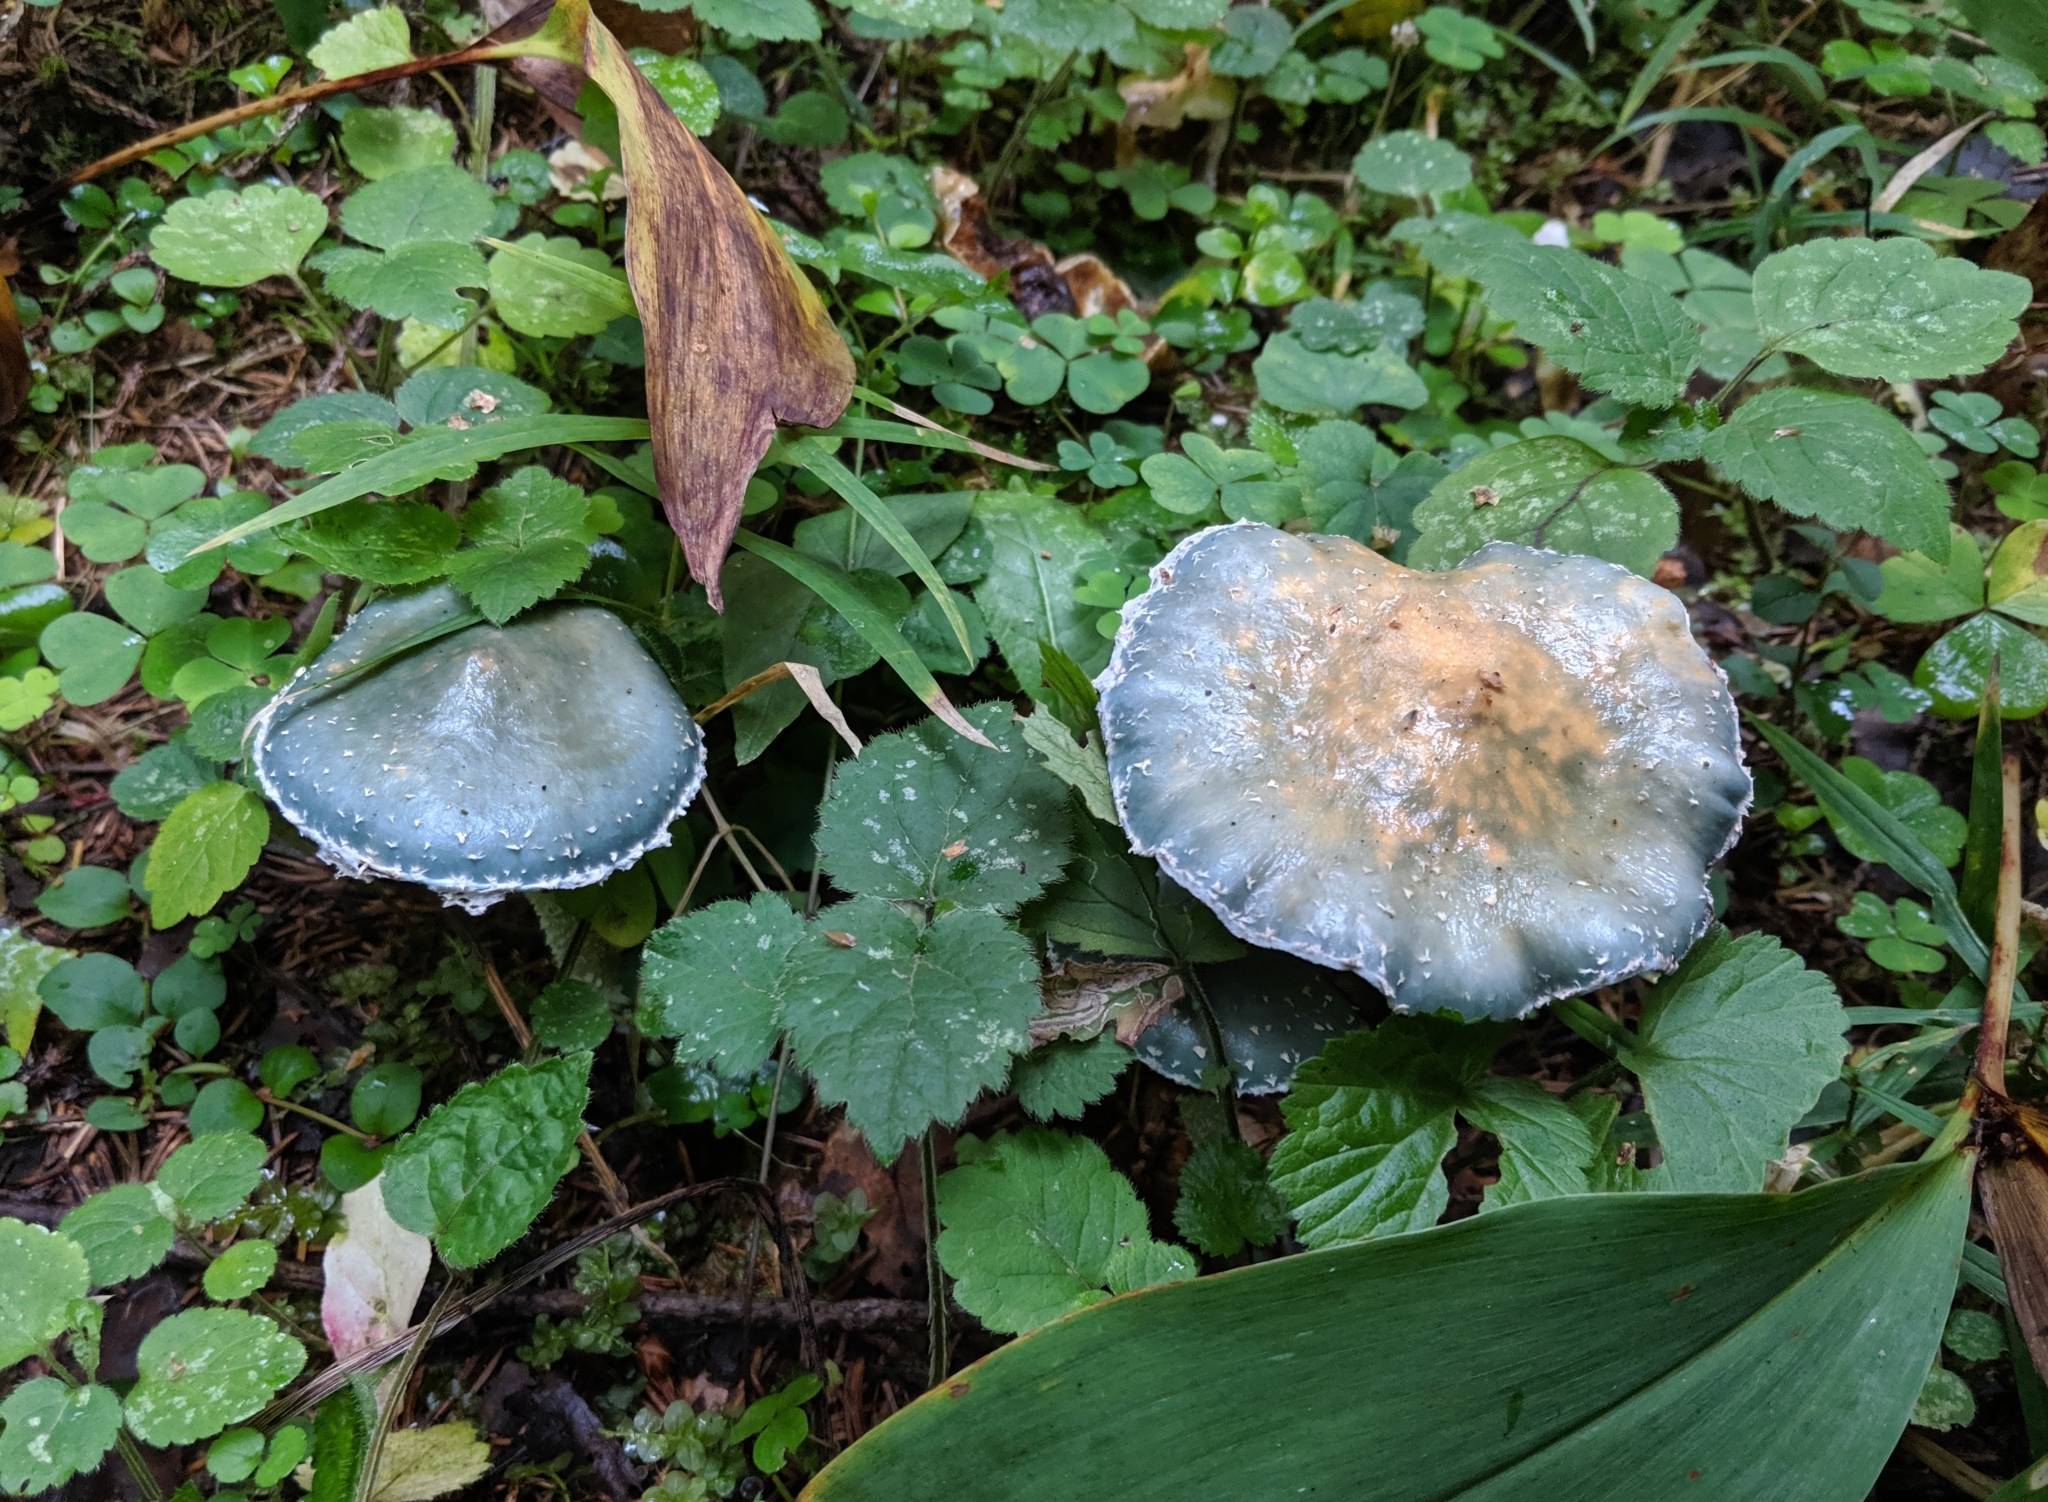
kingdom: Fungi
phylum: Basidiomycota
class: Agaricomycetes
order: Agaricales
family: Strophariaceae
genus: Stropharia
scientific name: Stropharia aeruginosa
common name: Verdigris roundhead
